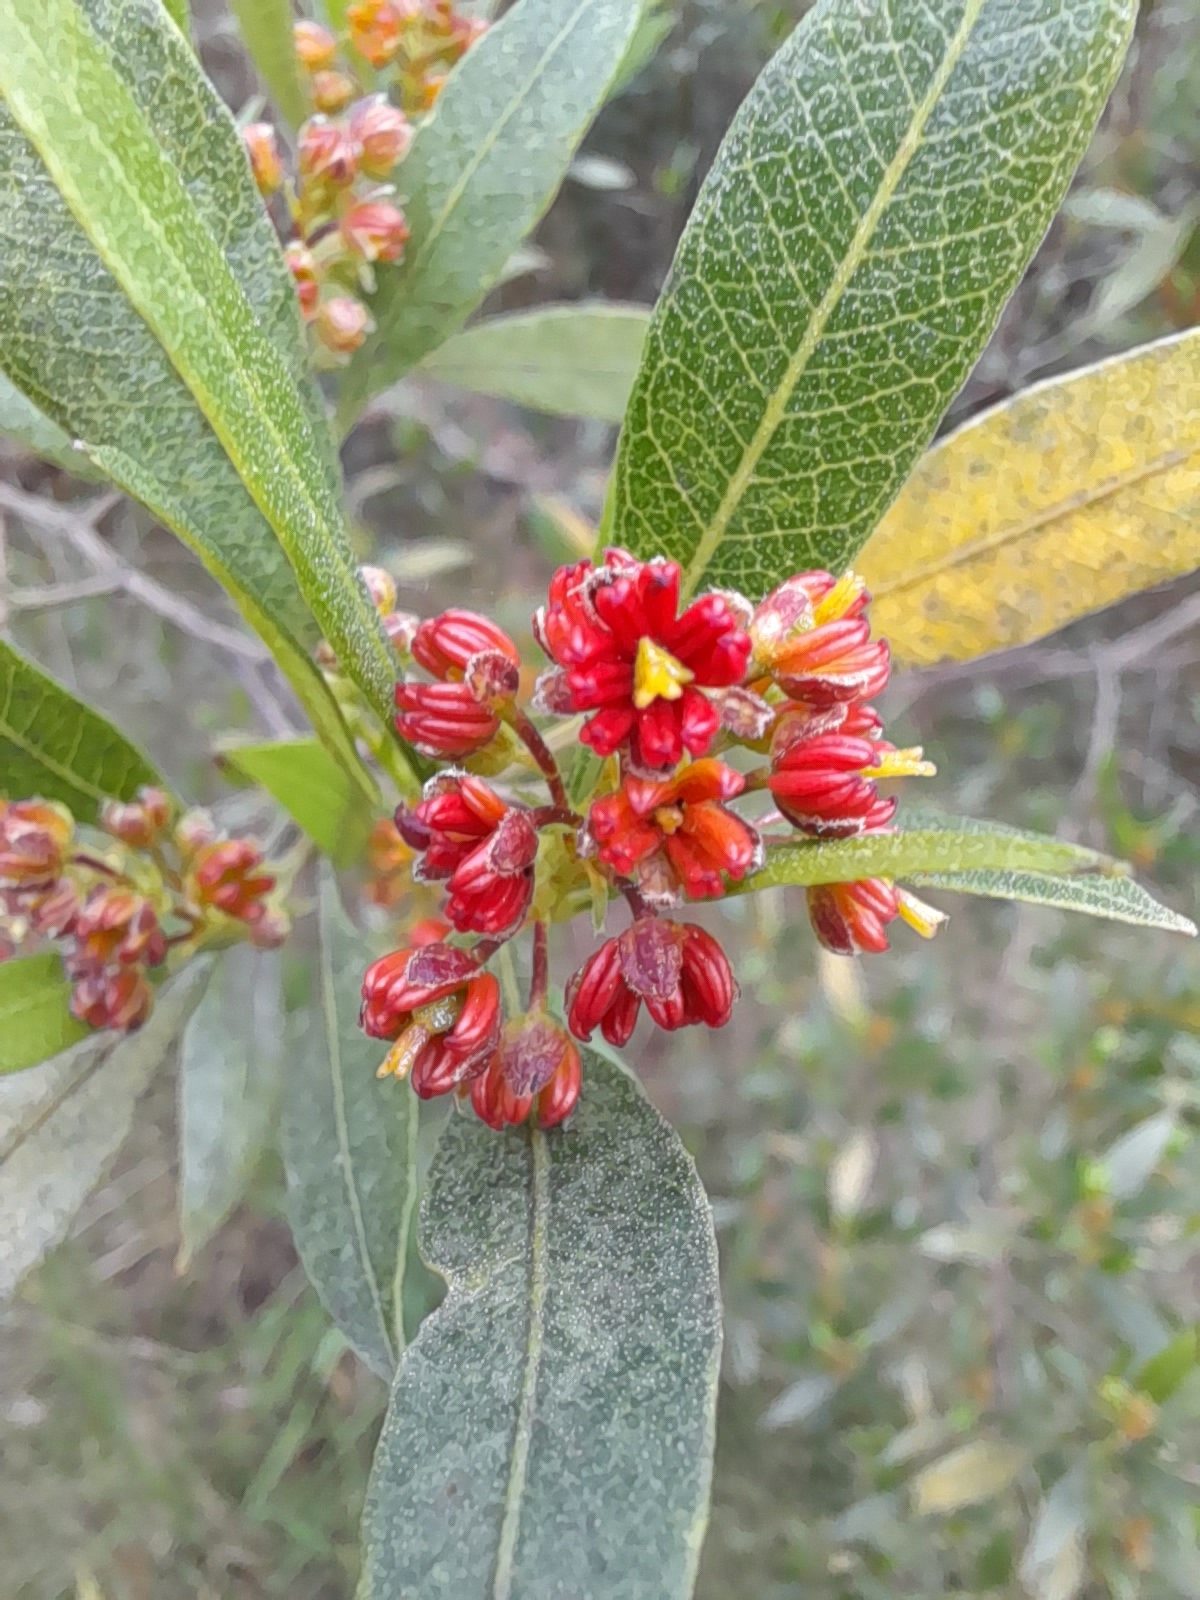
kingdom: Plantae
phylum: Tracheophyta
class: Magnoliopsida
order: Sapindales
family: Sapindaceae
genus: Dodonaea
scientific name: Dodonaea viscosa
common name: Hopbush
